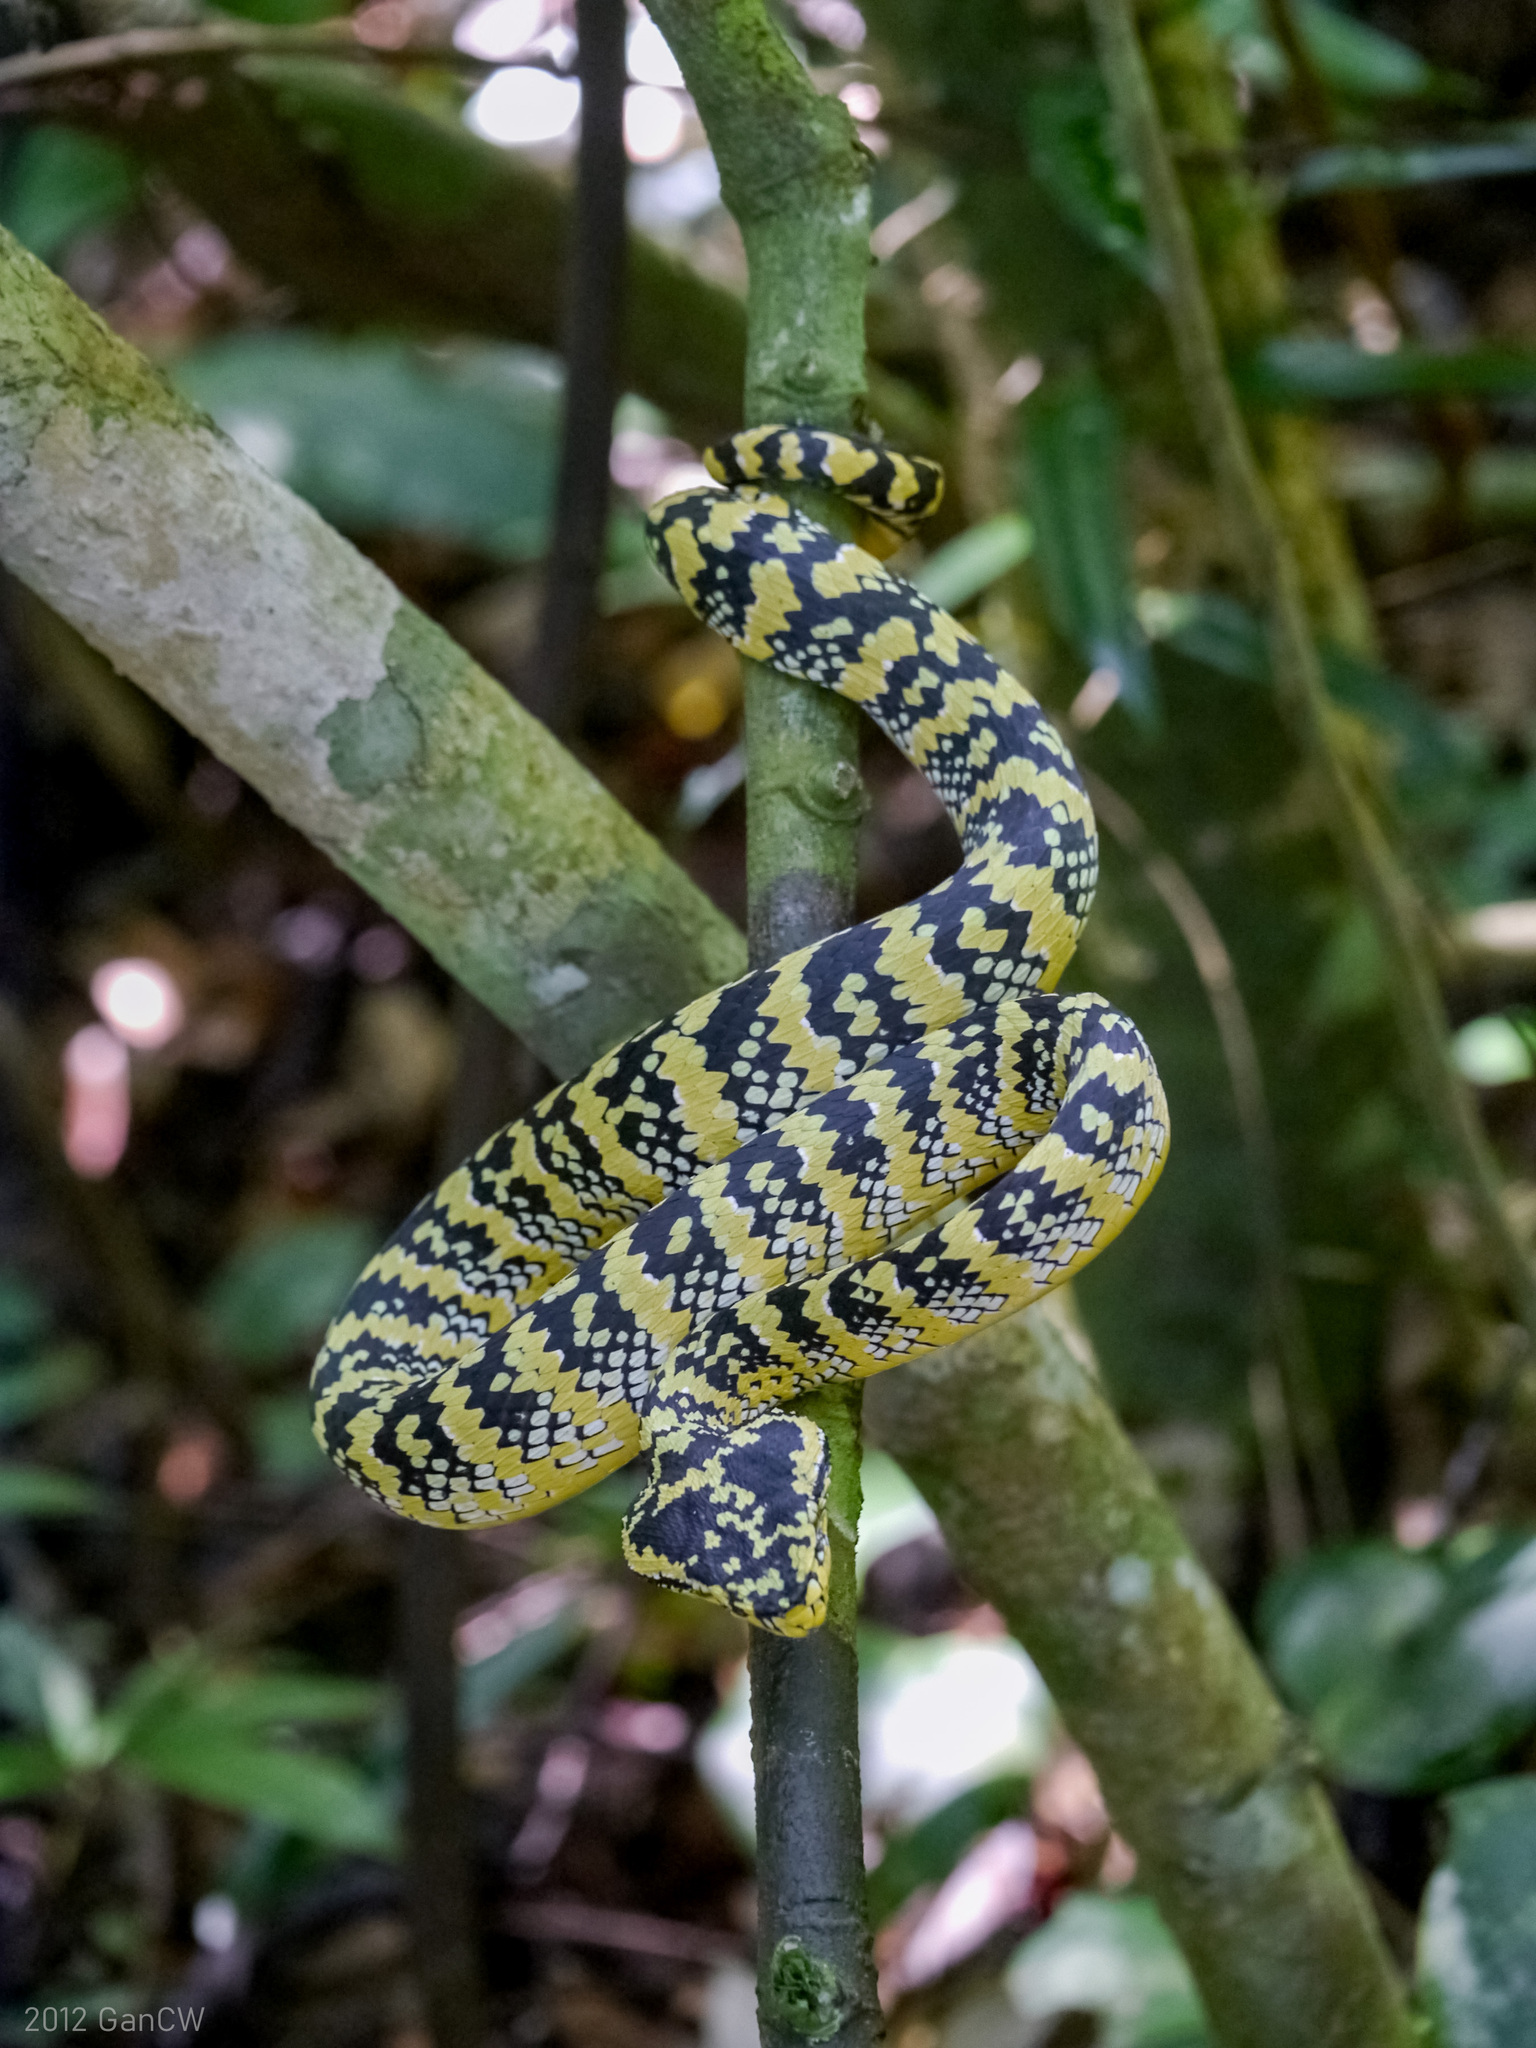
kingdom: Animalia
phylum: Chordata
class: Squamata
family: Viperidae
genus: Tropidolaemus
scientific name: Tropidolaemus wagleri
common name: Wagler's palm viper
